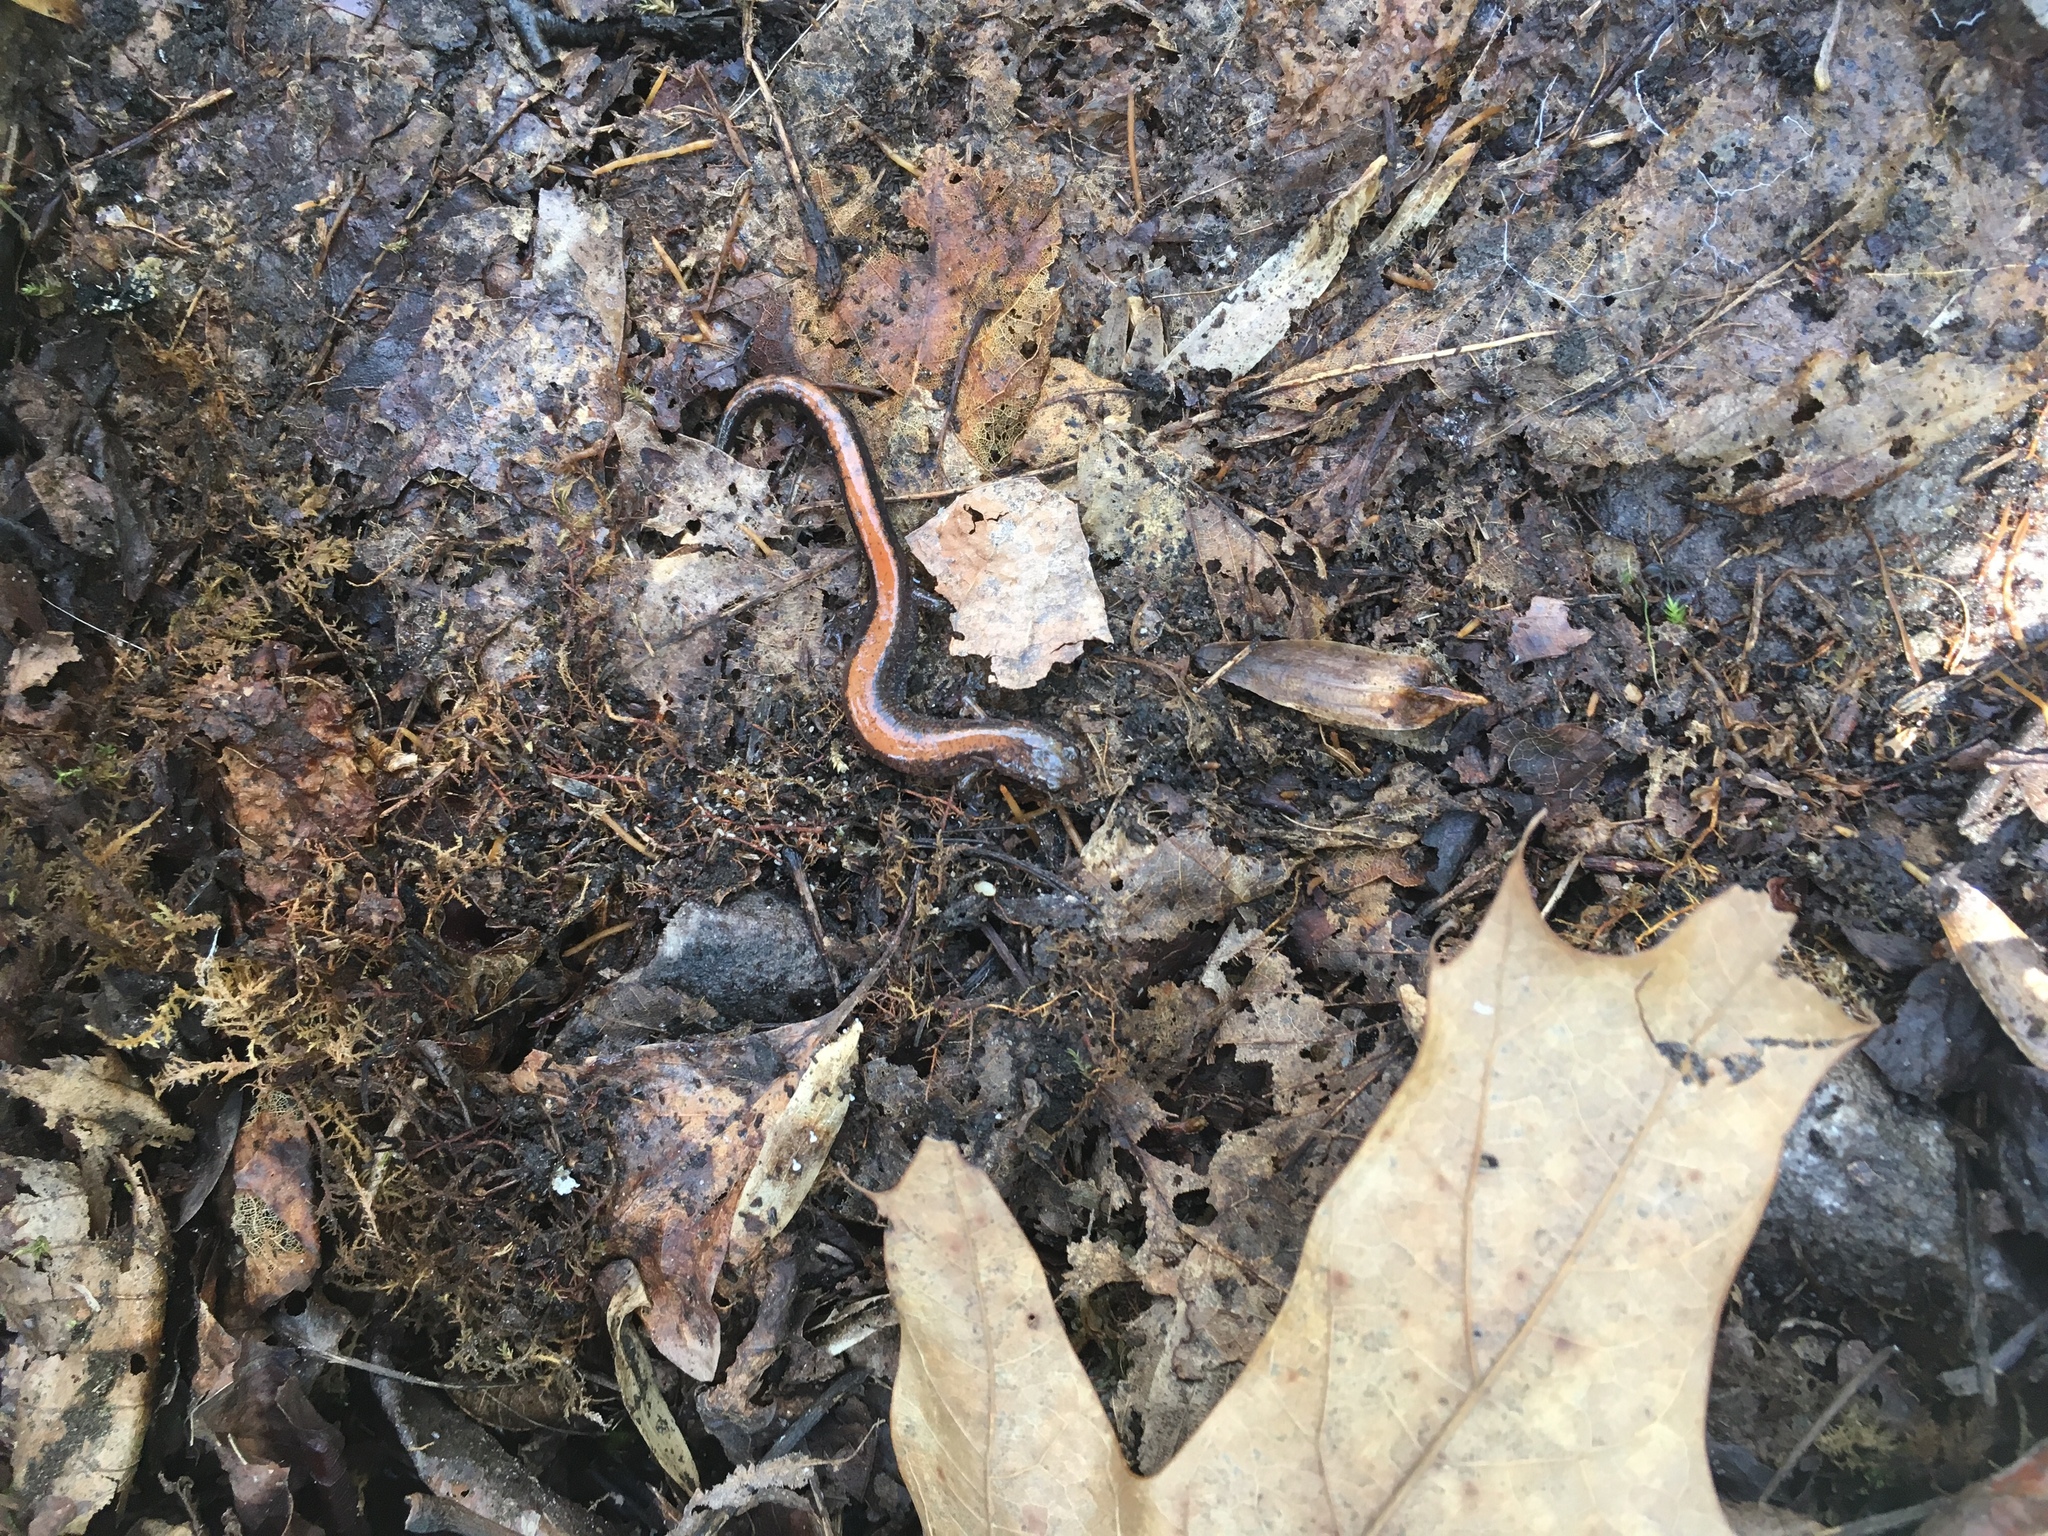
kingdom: Animalia
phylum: Chordata
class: Amphibia
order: Caudata
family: Plethodontidae
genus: Plethodon
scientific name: Plethodon cinereus
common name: Redback salamander
